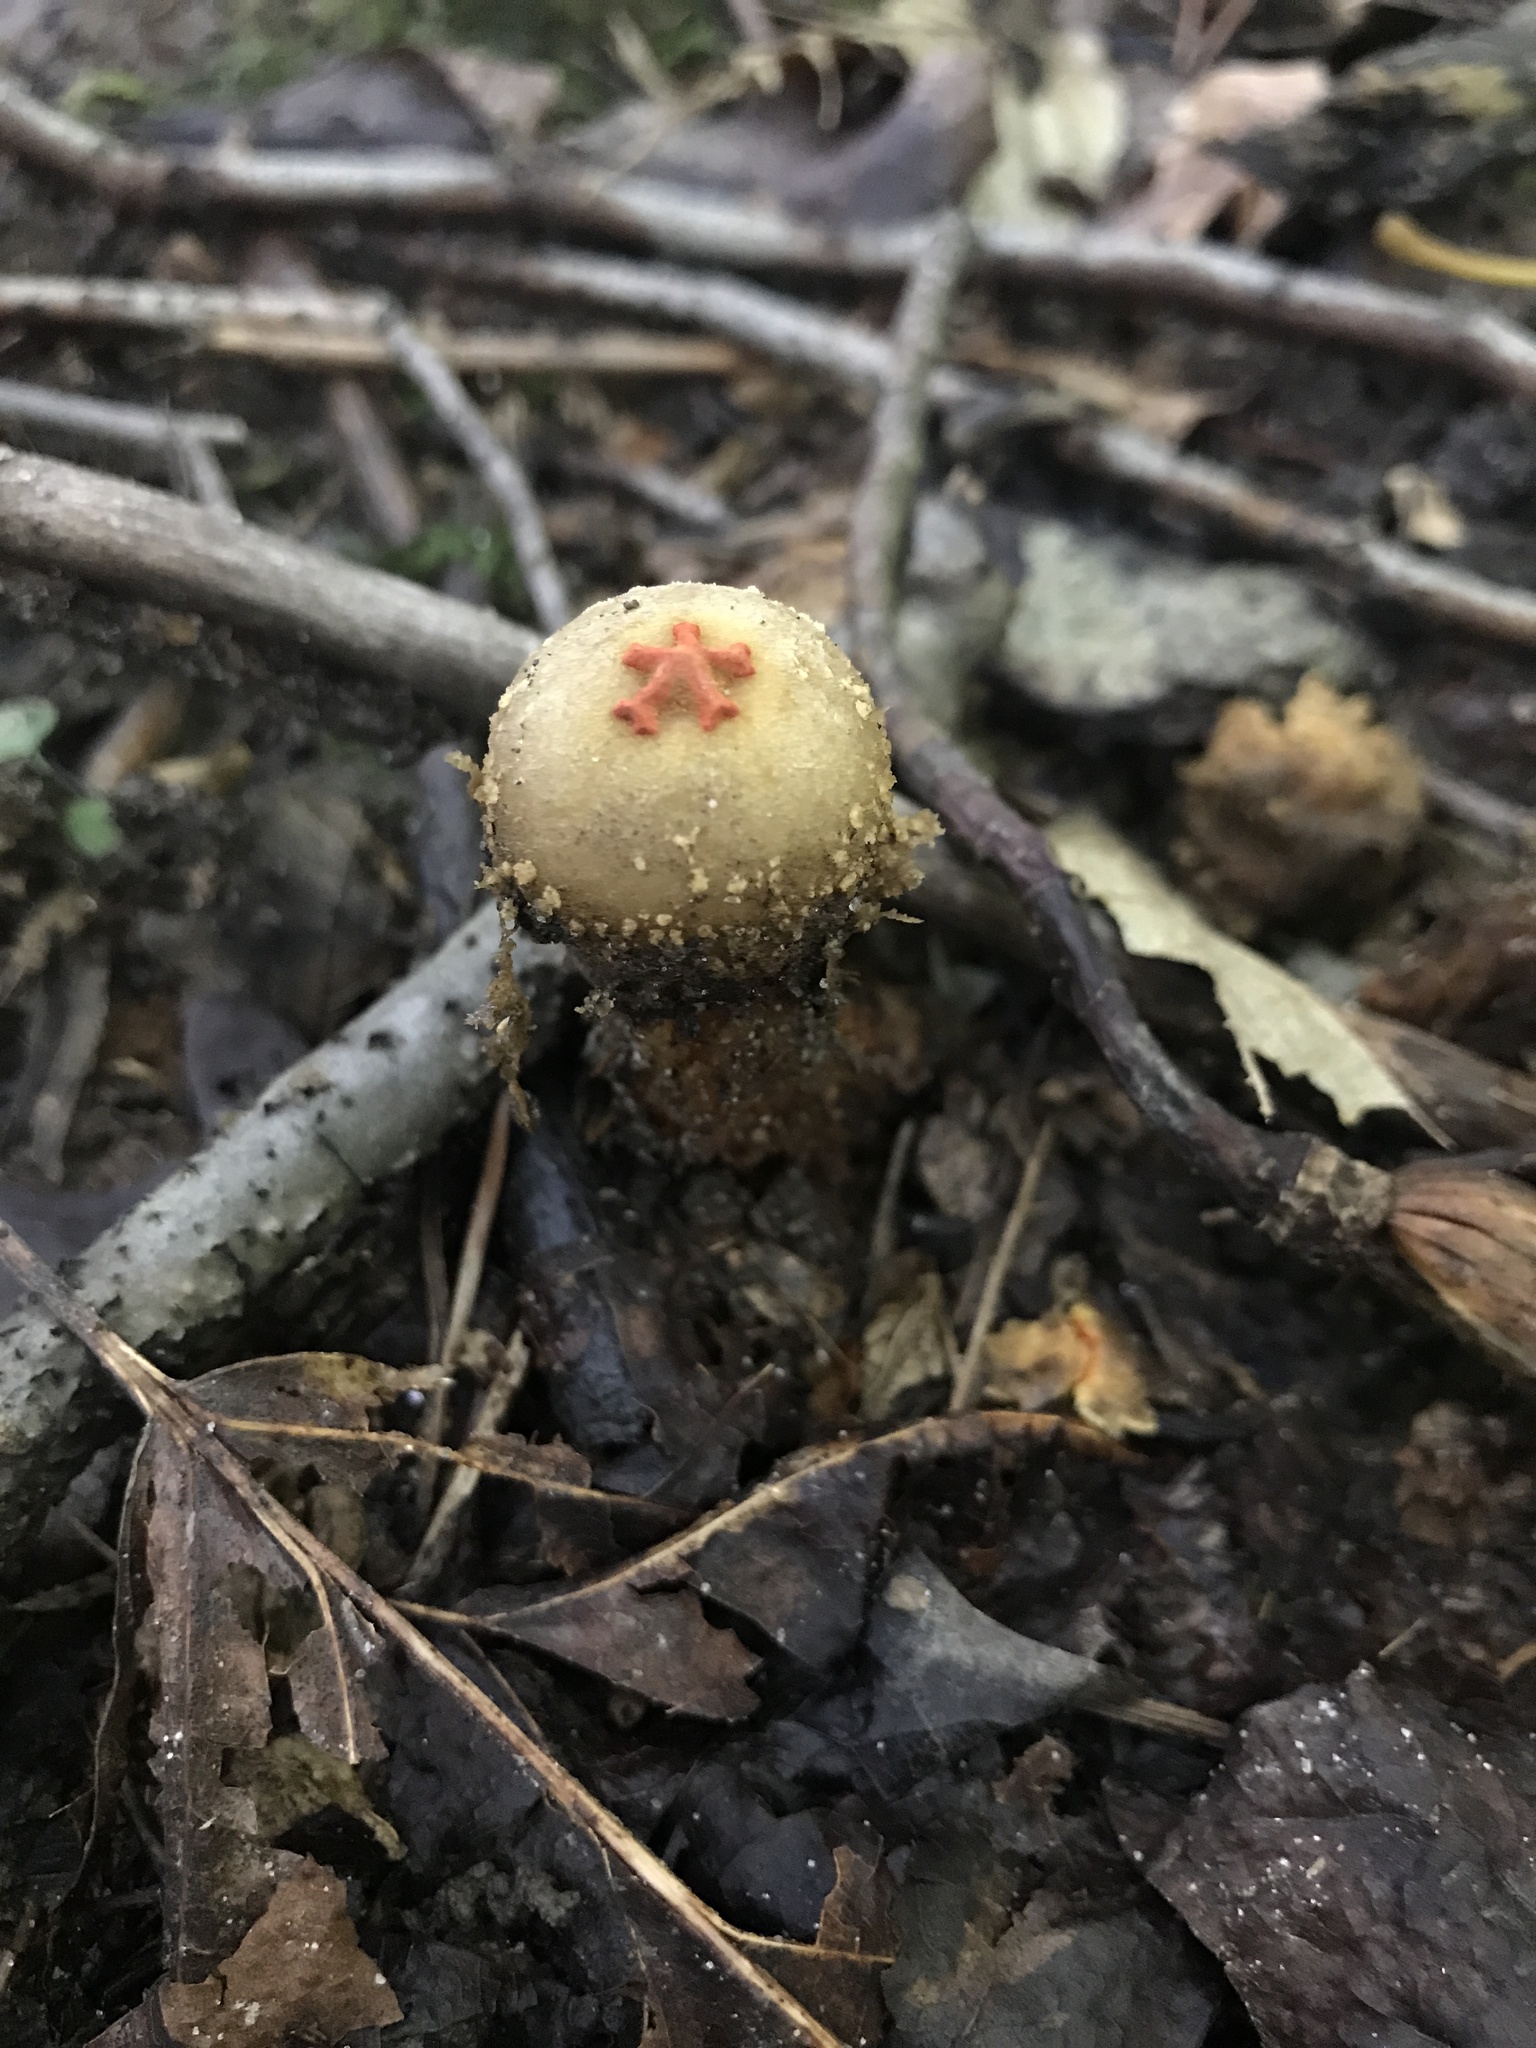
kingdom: Fungi
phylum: Basidiomycota
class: Agaricomycetes
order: Boletales
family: Calostomataceae
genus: Calostoma
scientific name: Calostoma ravenelii
